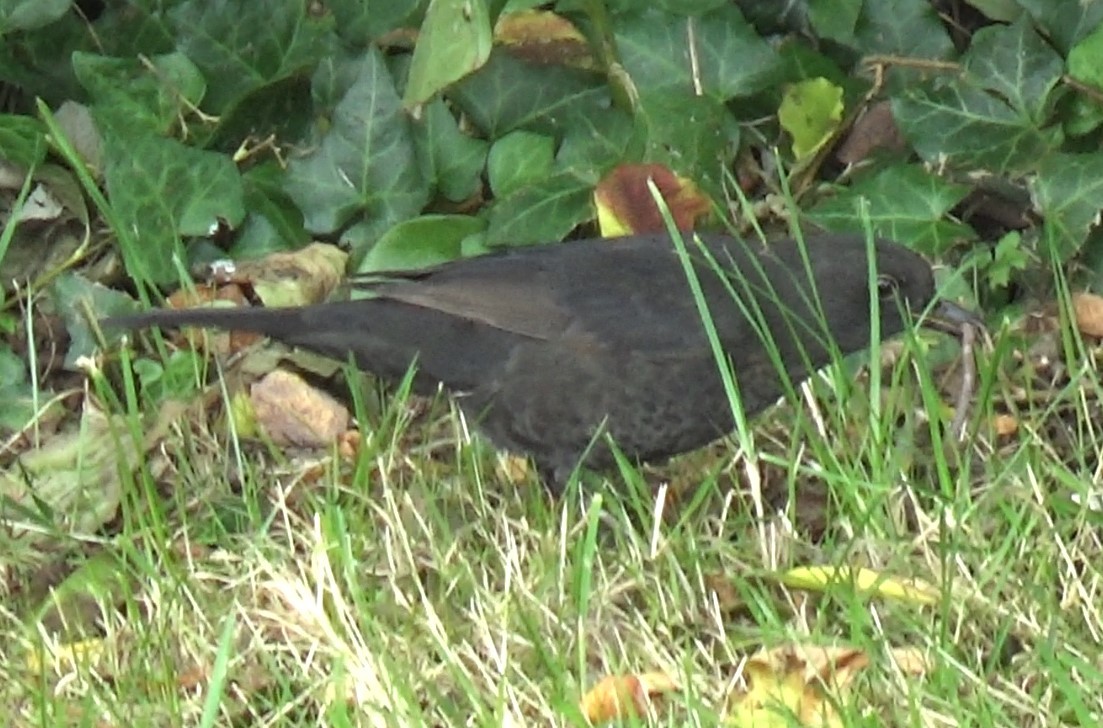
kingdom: Animalia
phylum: Chordata
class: Aves
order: Passeriformes
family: Turdidae
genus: Turdus
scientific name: Turdus merula
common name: Common blackbird
